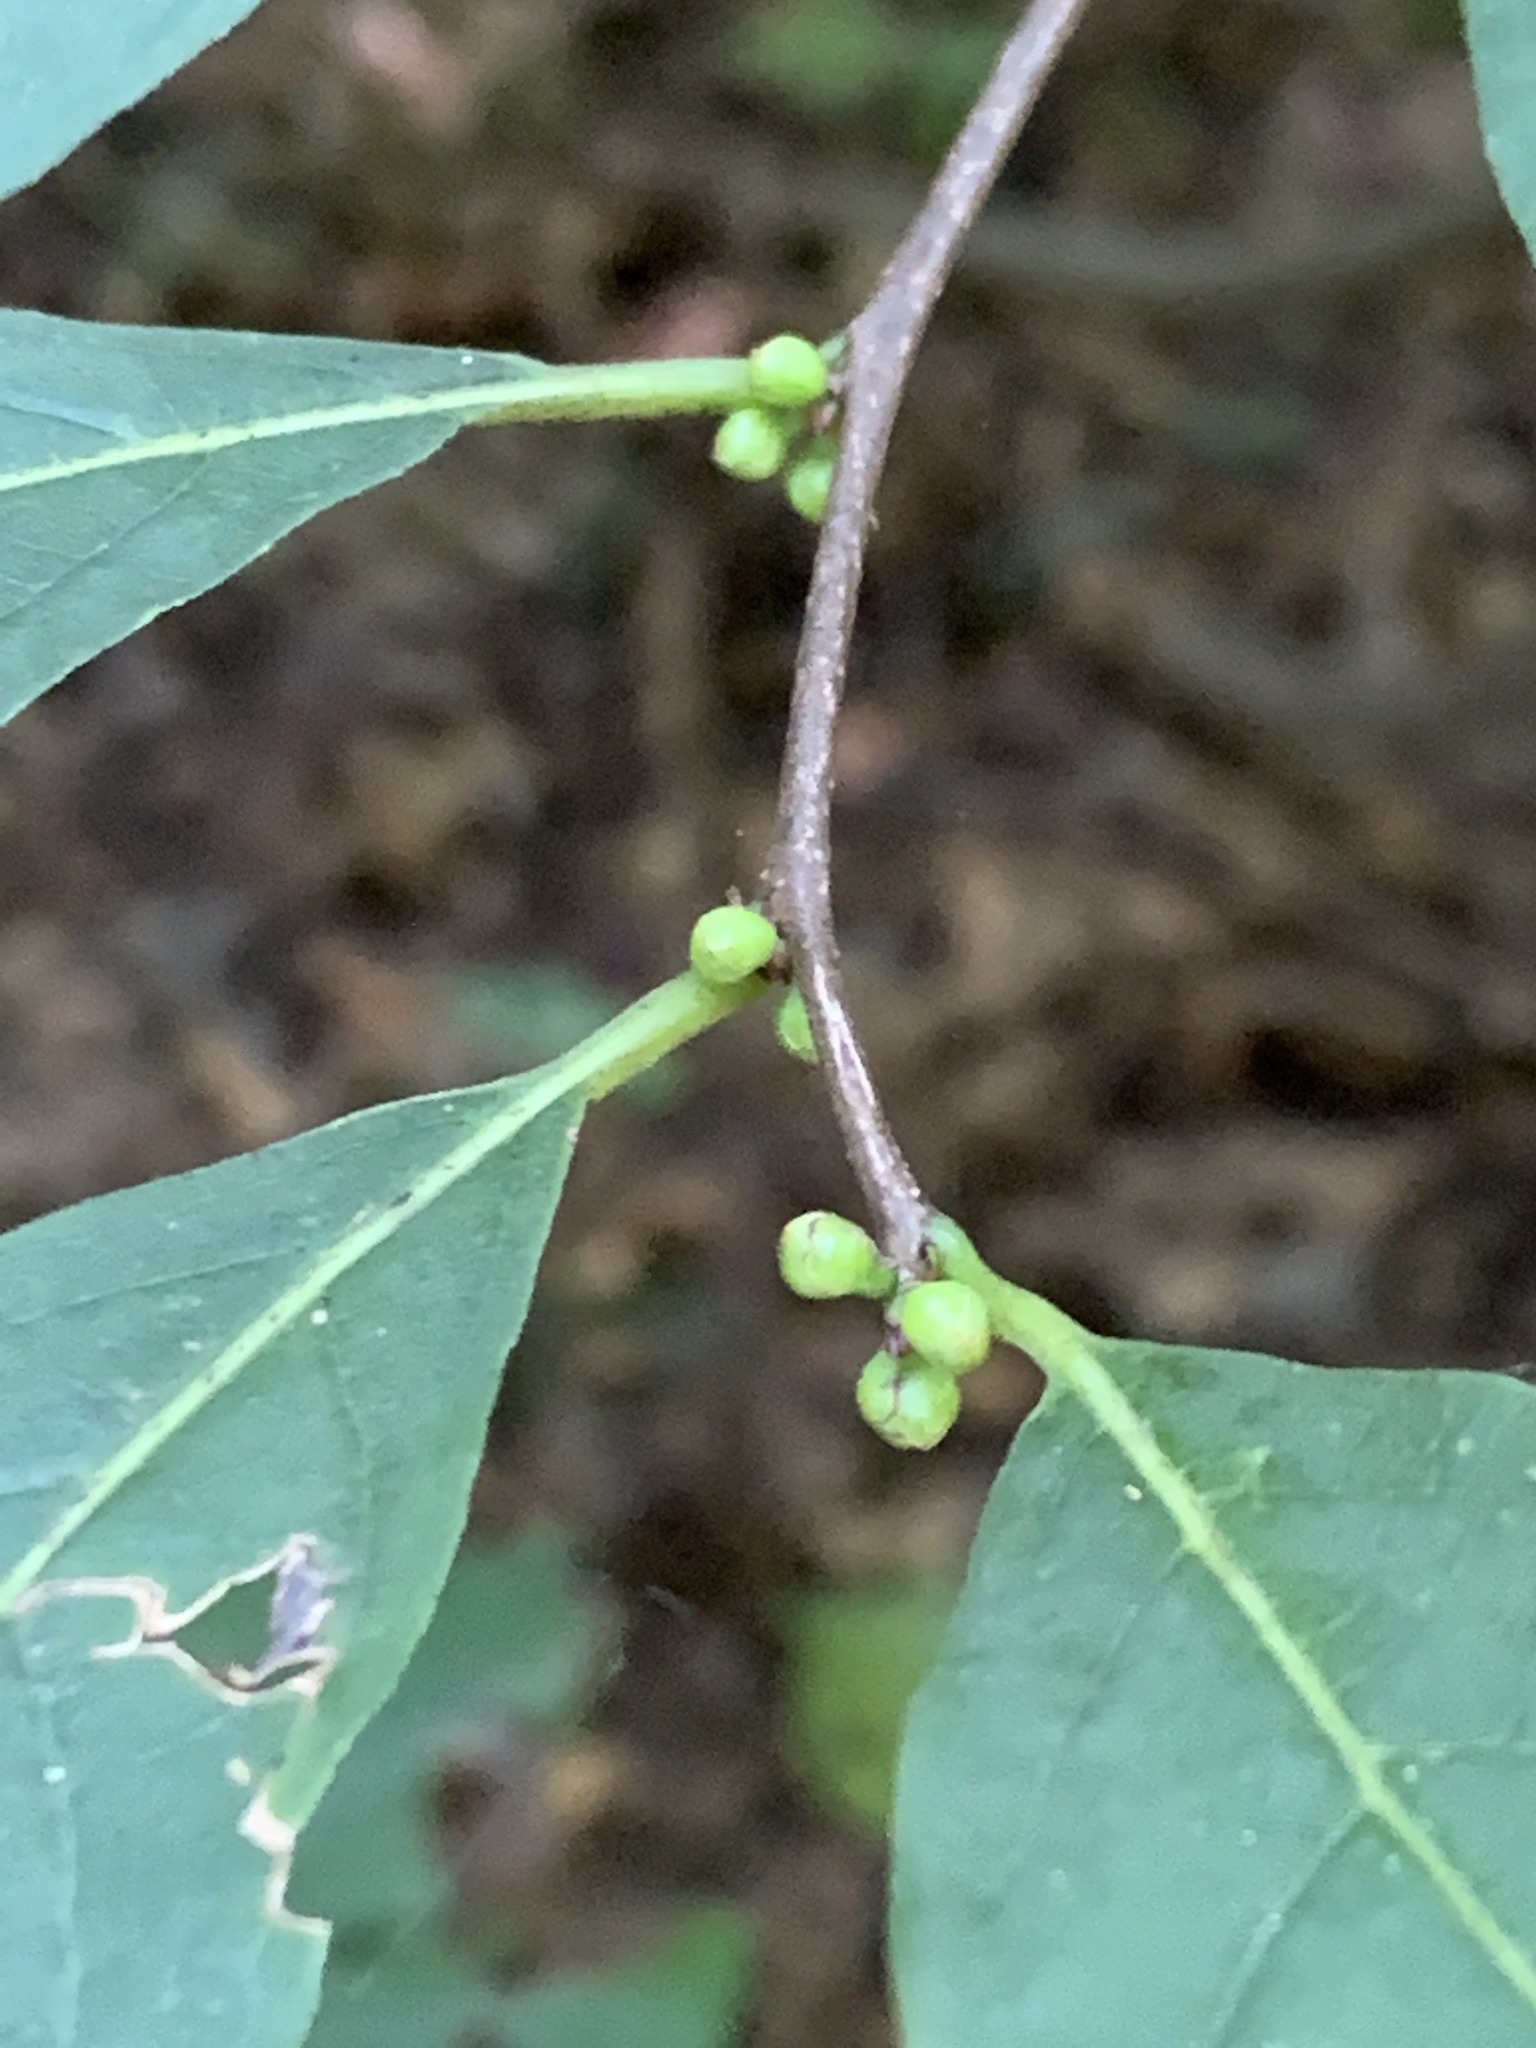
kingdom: Plantae
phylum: Tracheophyta
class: Magnoliopsida
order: Laurales
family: Lauraceae
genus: Lindera
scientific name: Lindera benzoin
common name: Spicebush
